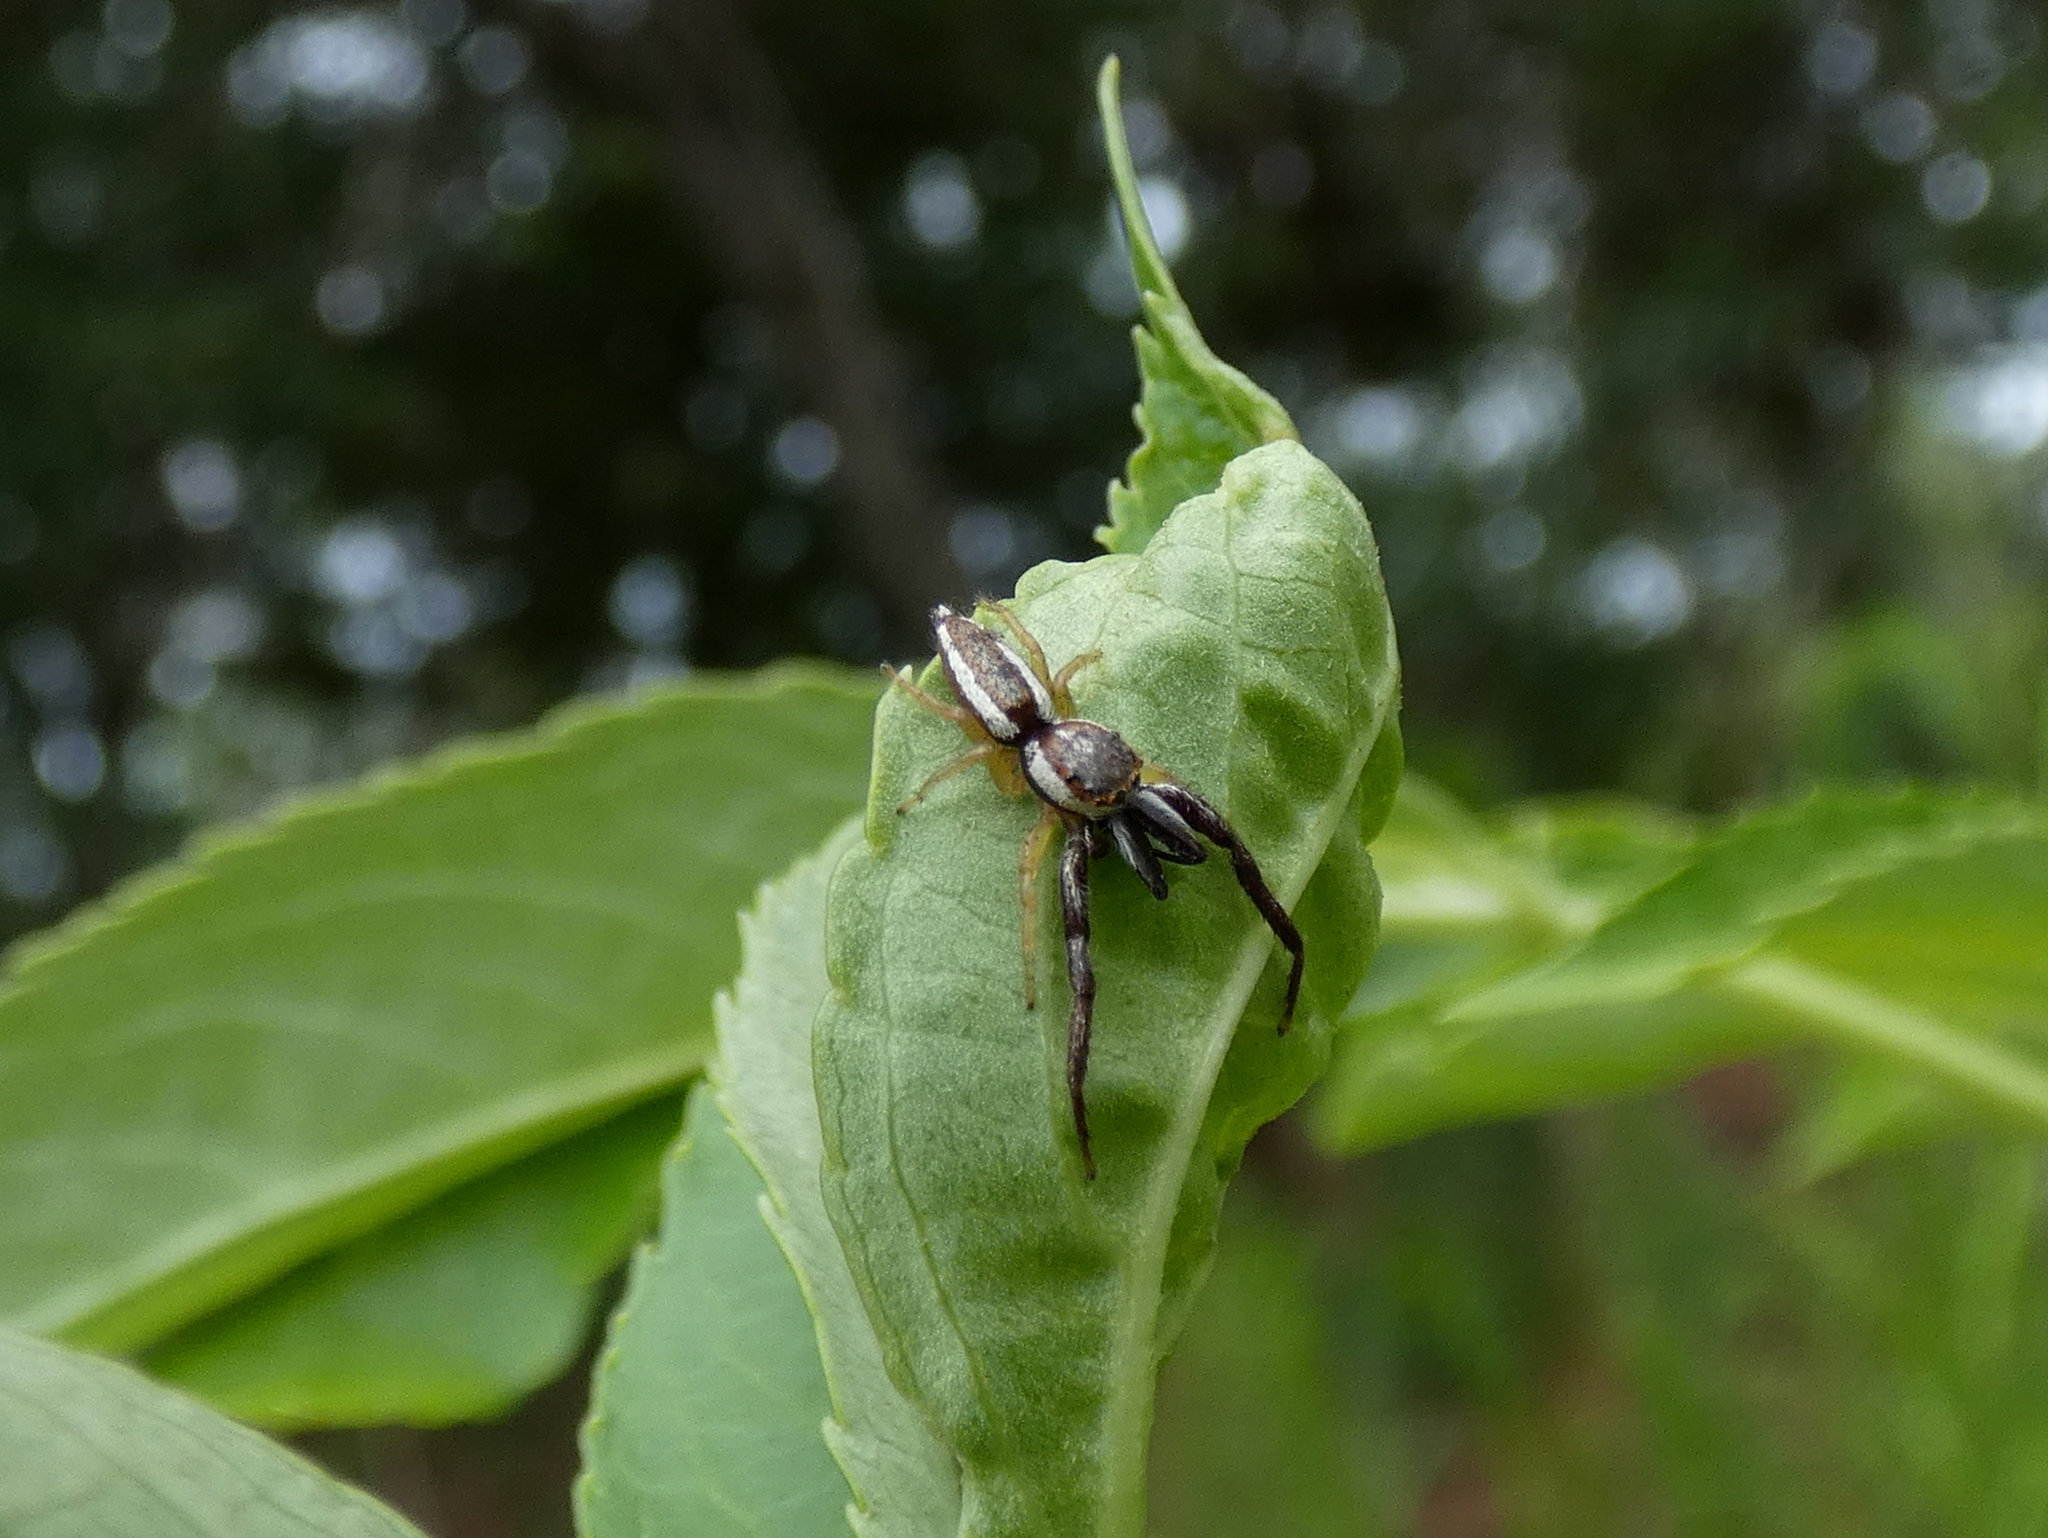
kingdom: Animalia
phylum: Arthropoda
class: Arachnida
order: Araneae
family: Salticidae
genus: Hentzia
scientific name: Hentzia palmarum
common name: Common hentz jumping spider
